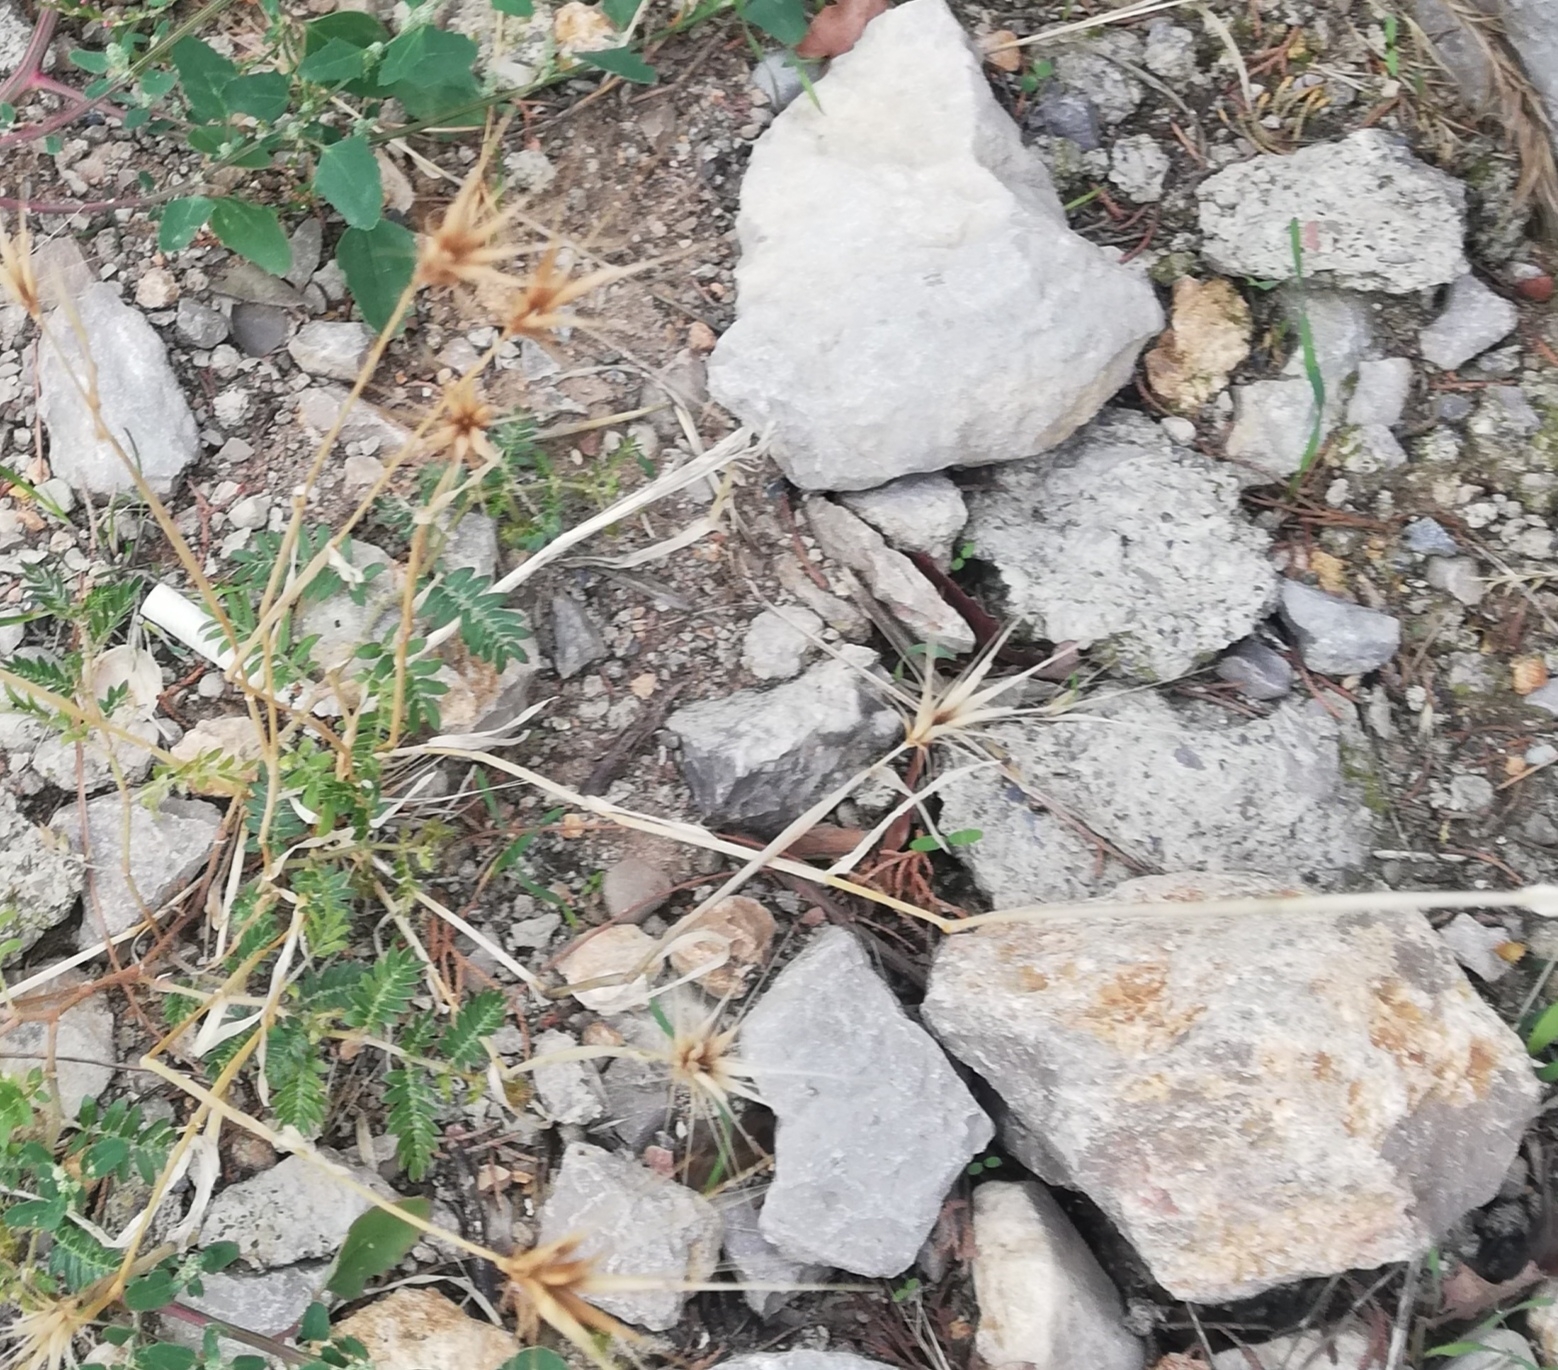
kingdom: Plantae
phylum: Tracheophyta
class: Liliopsida
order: Poales
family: Poaceae
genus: Hordeum
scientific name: Hordeum murinum
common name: Wall barley
